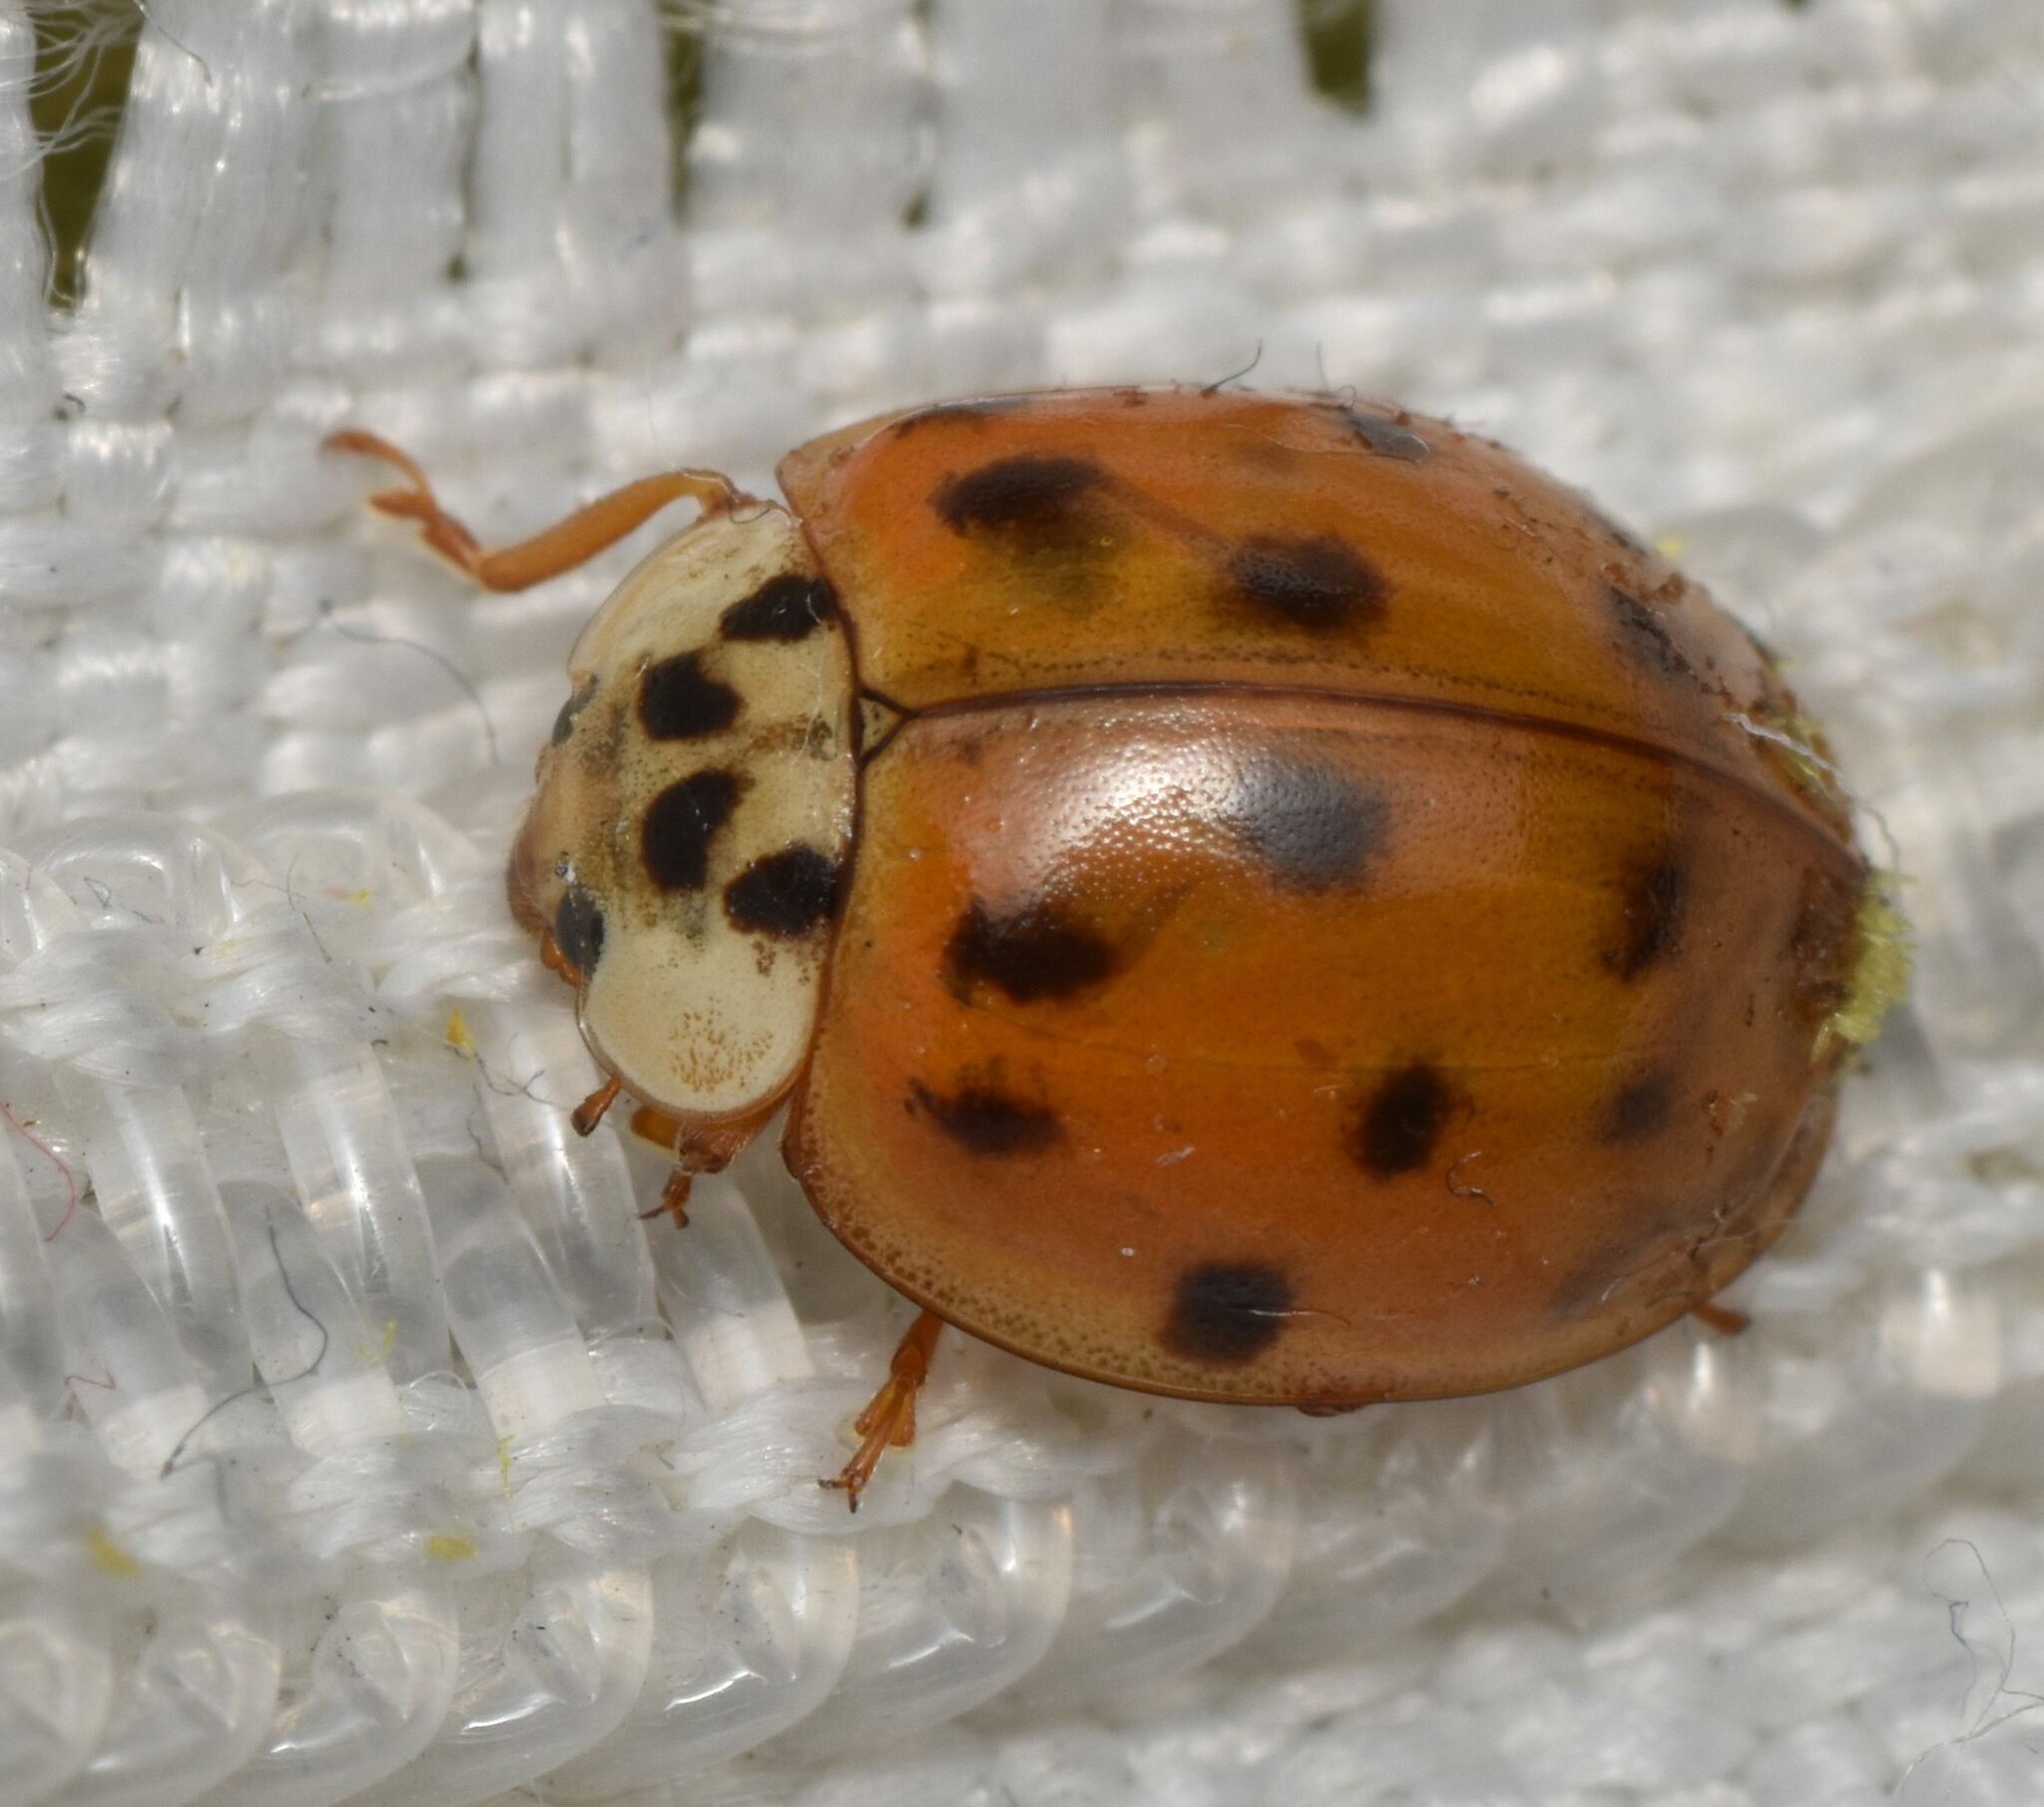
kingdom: Animalia
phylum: Arthropoda
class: Insecta
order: Coleoptera
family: Coccinellidae
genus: Harmonia
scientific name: Harmonia axyridis
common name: Harlequin ladybird
